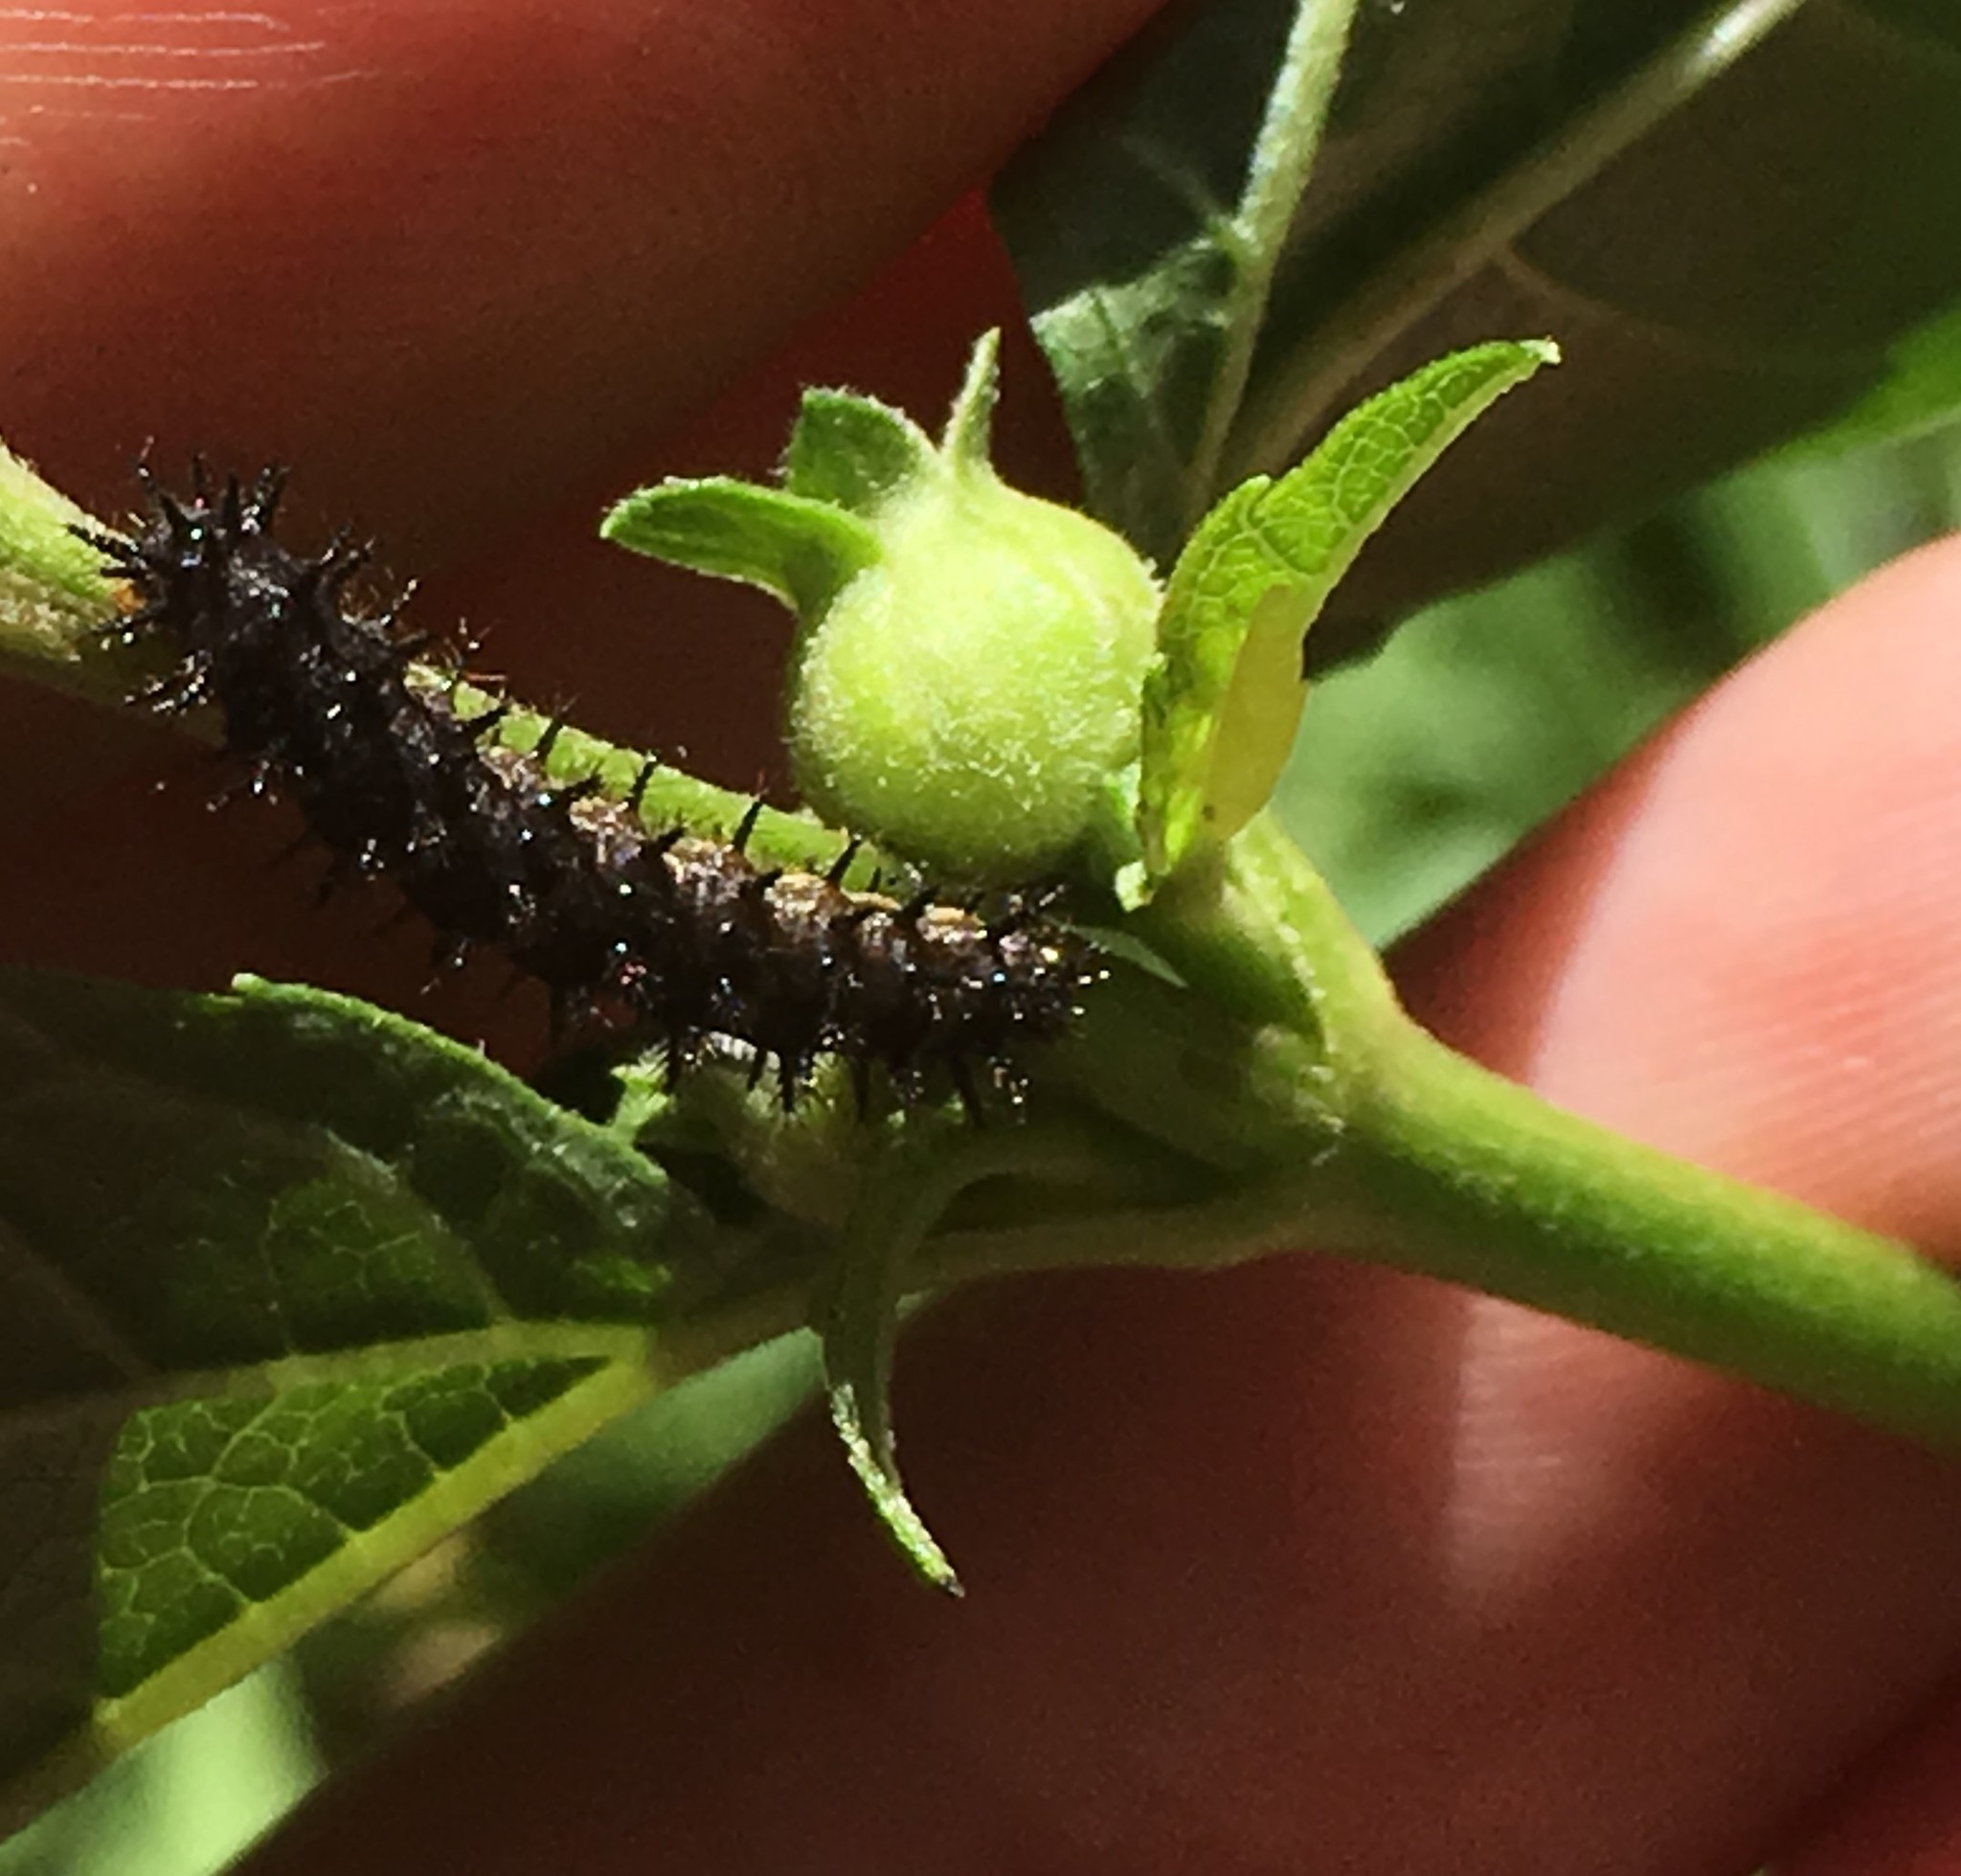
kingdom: Animalia
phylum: Arthropoda
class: Insecta
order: Lepidoptera
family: Nymphalidae
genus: Chlosyne
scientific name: Chlosyne nycteis
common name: Silvery checkerspot
